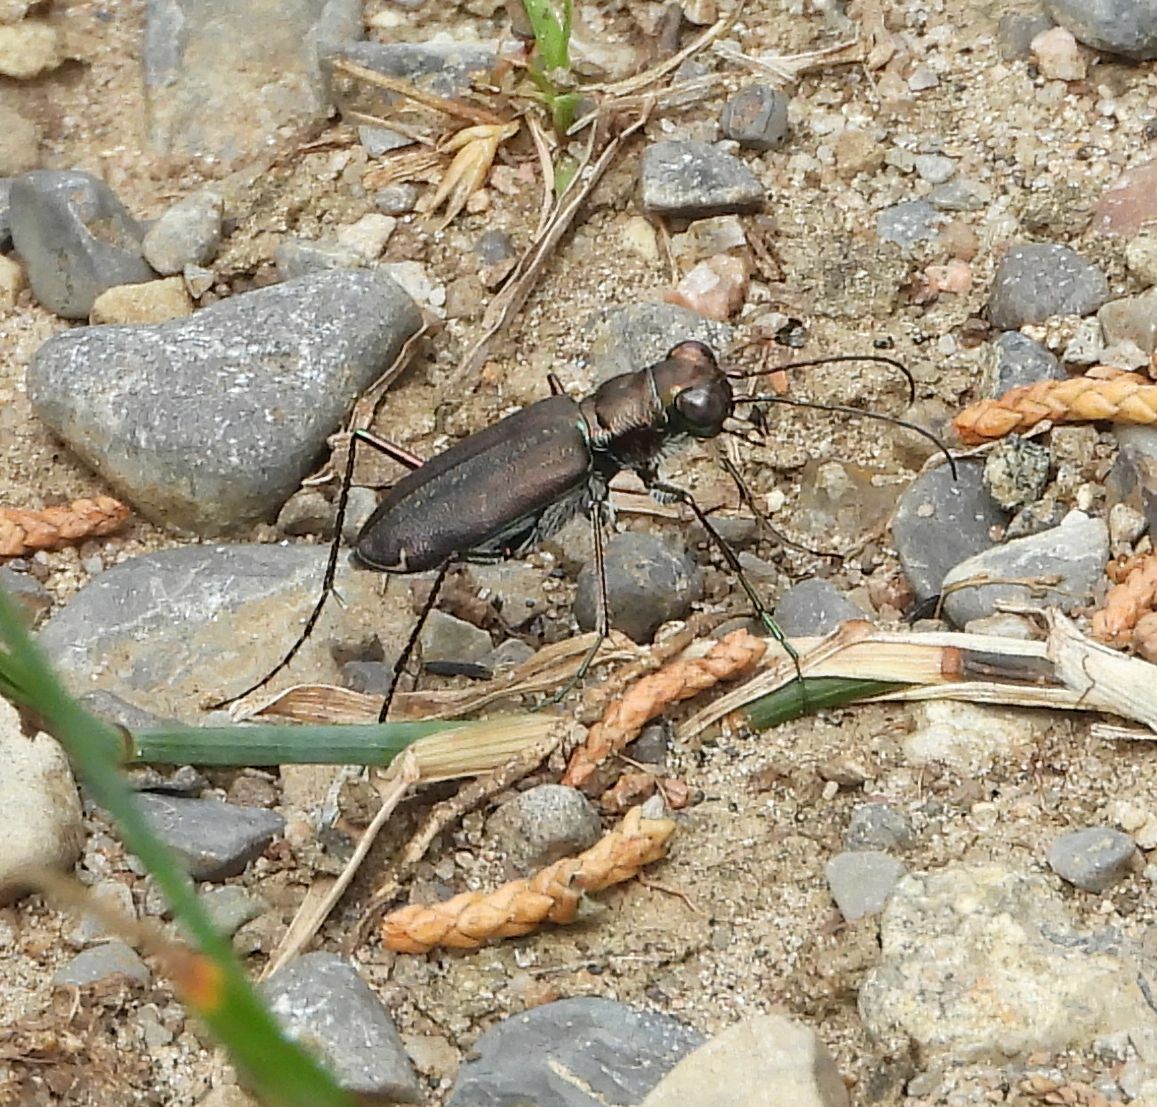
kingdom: Animalia
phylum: Arthropoda
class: Insecta
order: Coleoptera
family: Carabidae
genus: Cicindela
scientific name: Cicindela punctulata
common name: Punctured tiger beetle
